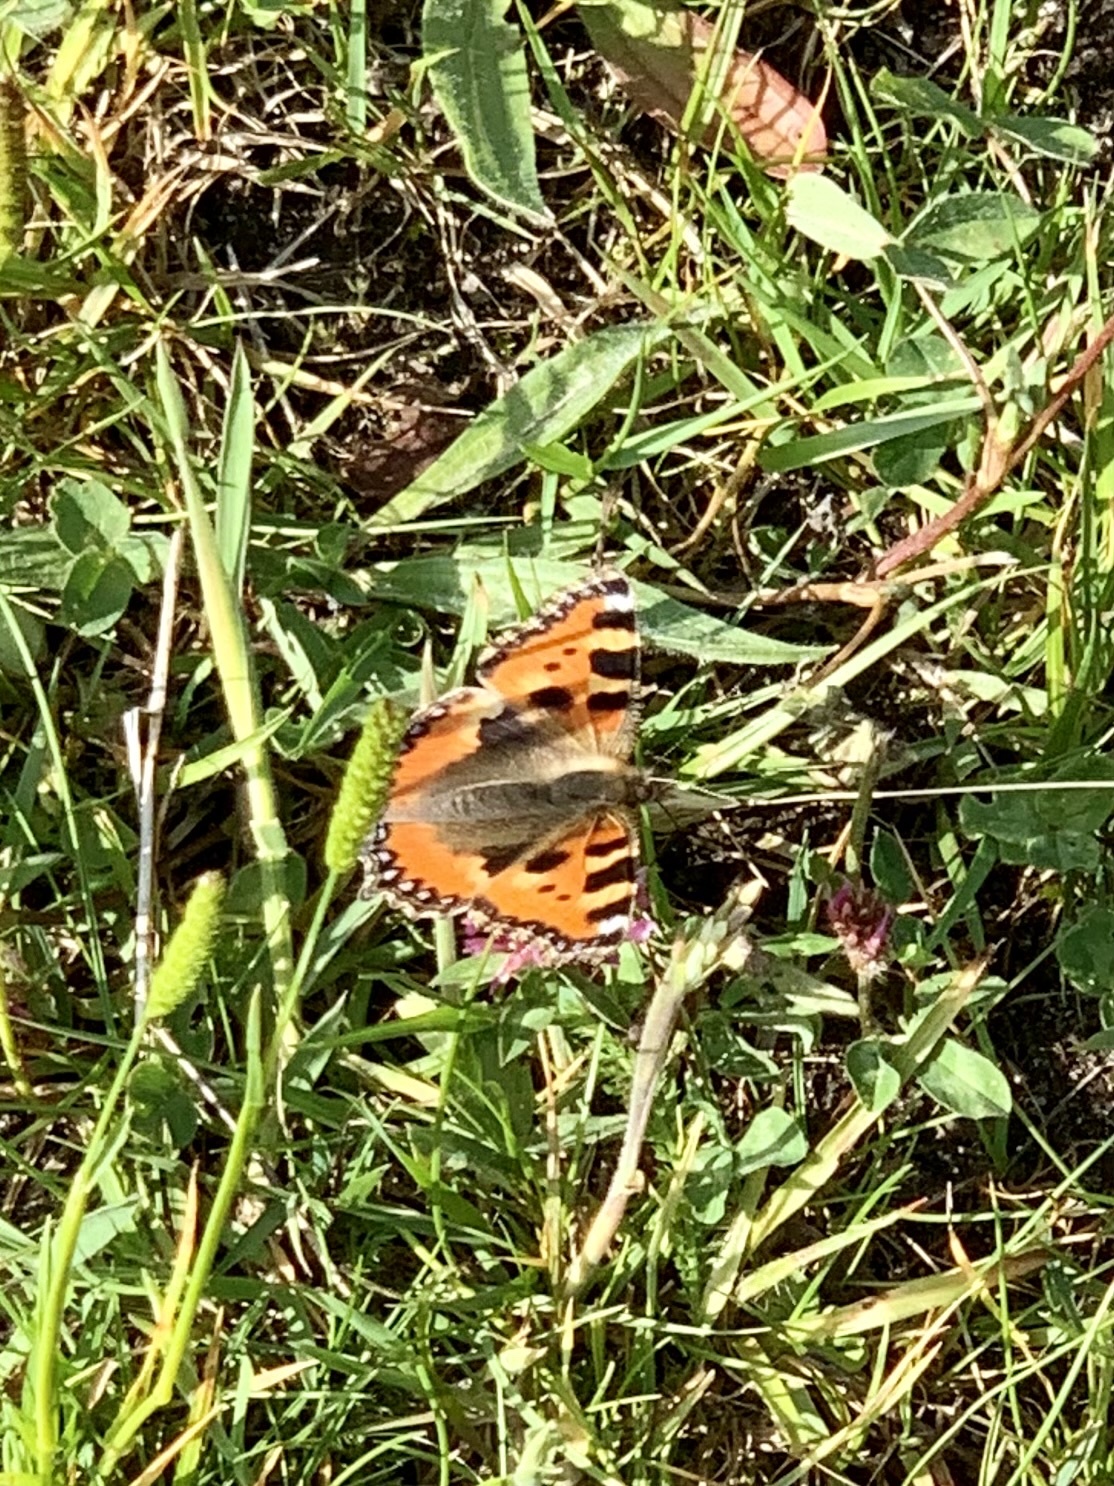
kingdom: Animalia
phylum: Arthropoda
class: Insecta
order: Lepidoptera
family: Nymphalidae
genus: Aglais
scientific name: Aglais urticae
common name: Small tortoiseshell
